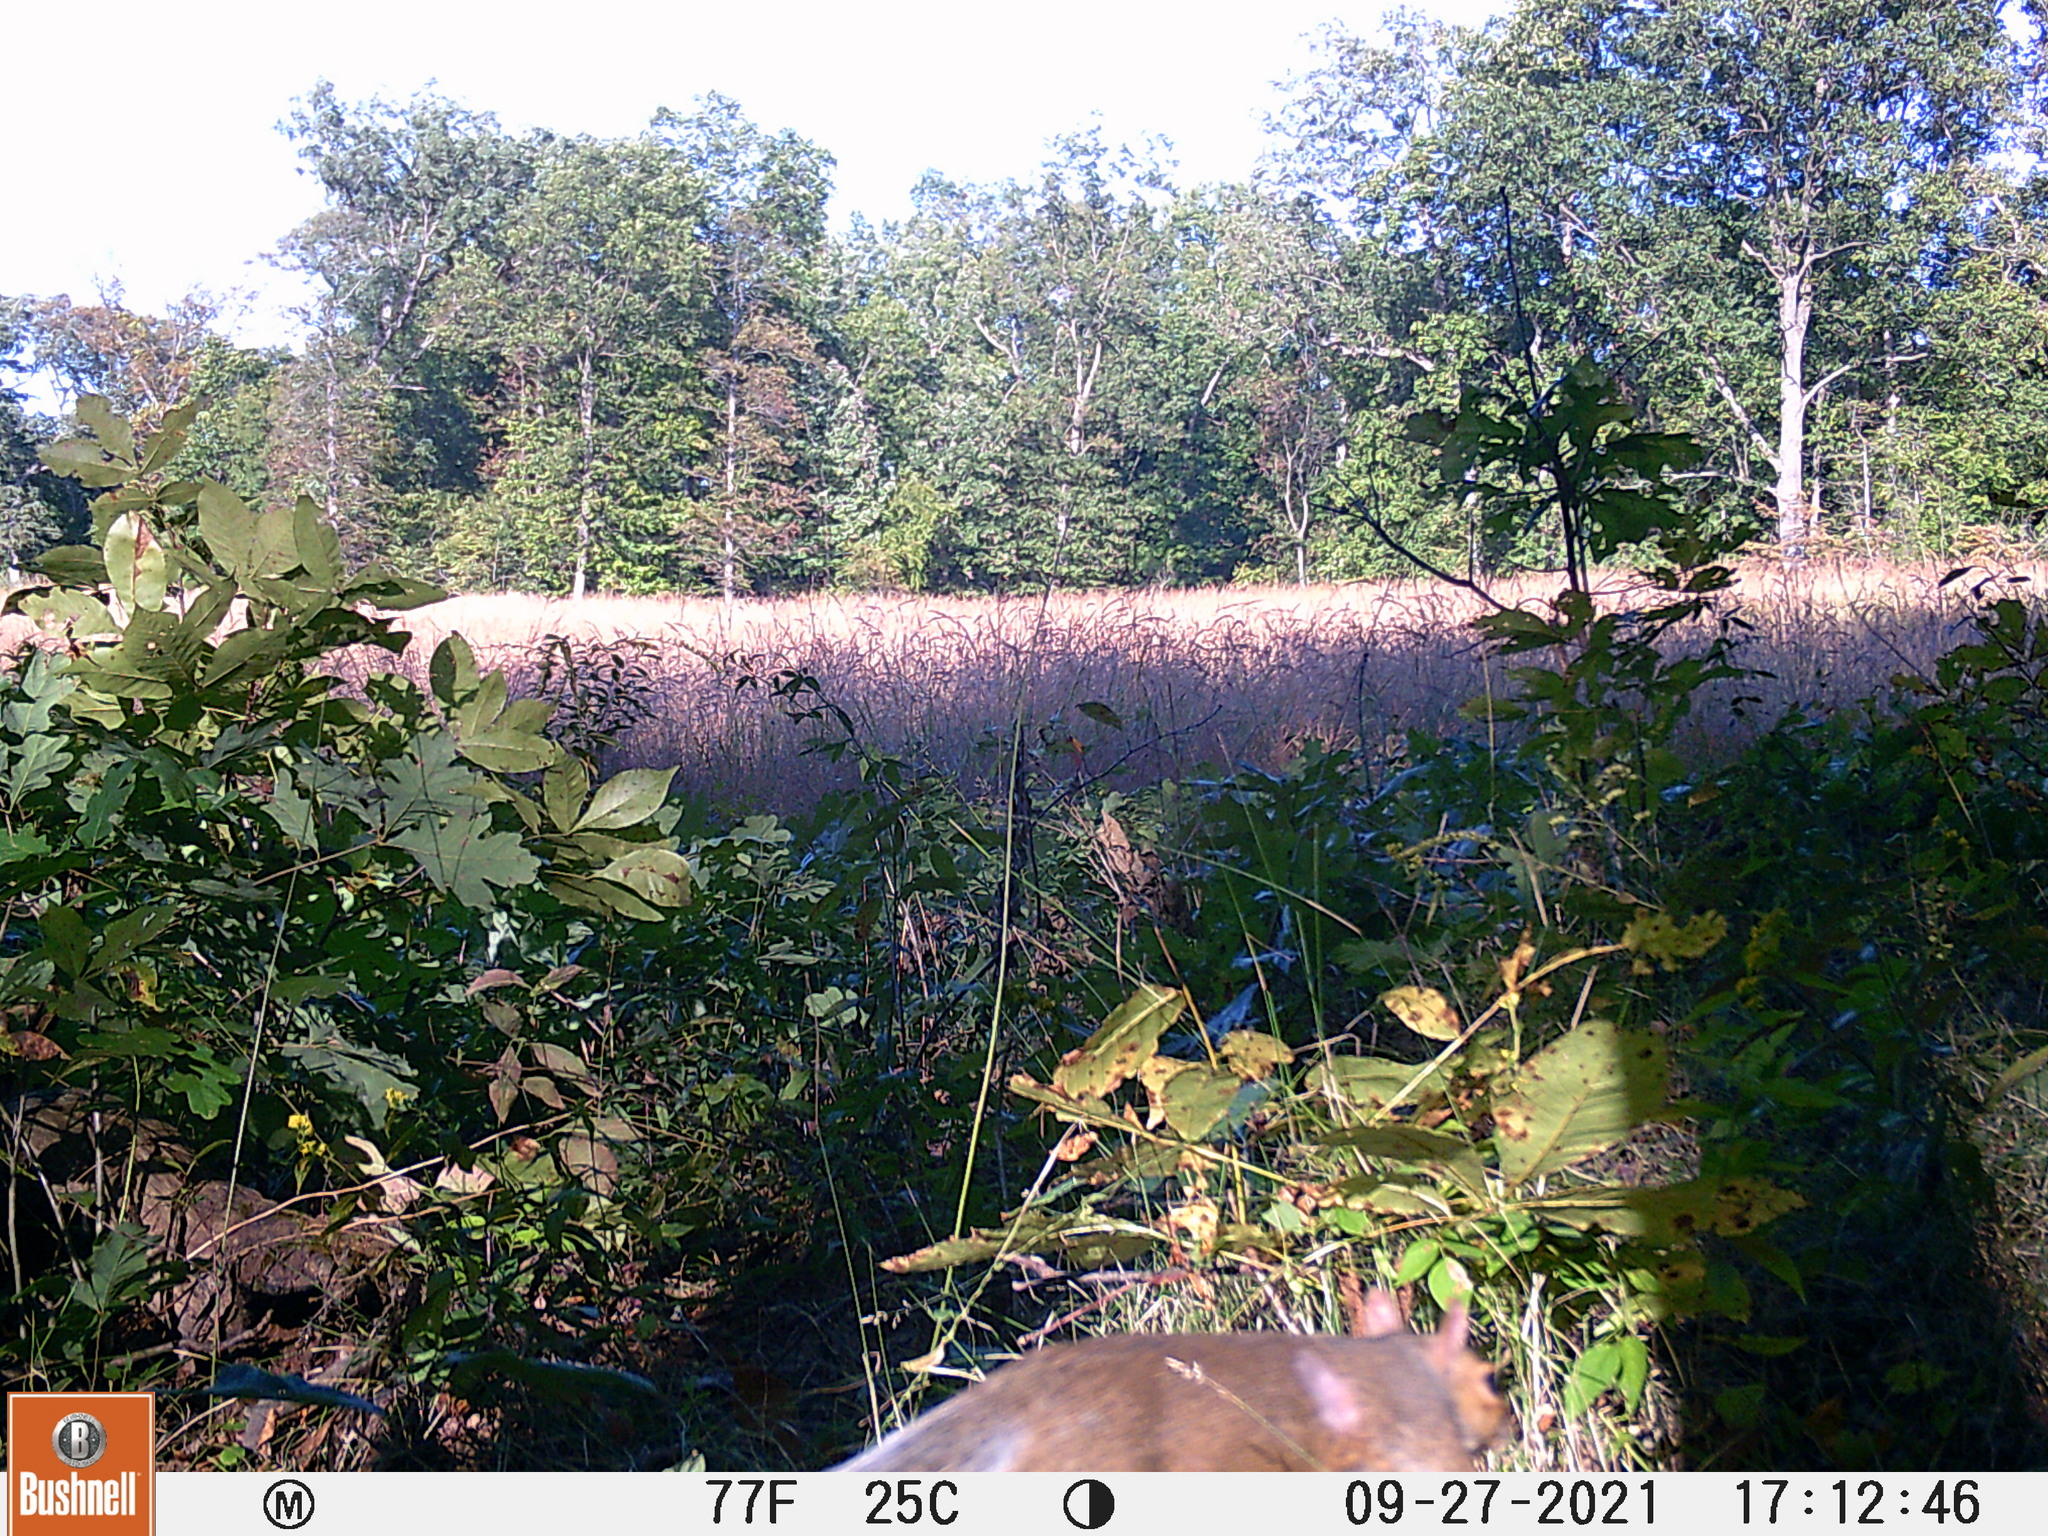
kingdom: Animalia
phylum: Chordata
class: Mammalia
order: Rodentia
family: Sciuridae
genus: Sciurus
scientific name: Sciurus carolinensis
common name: Eastern gray squirrel
